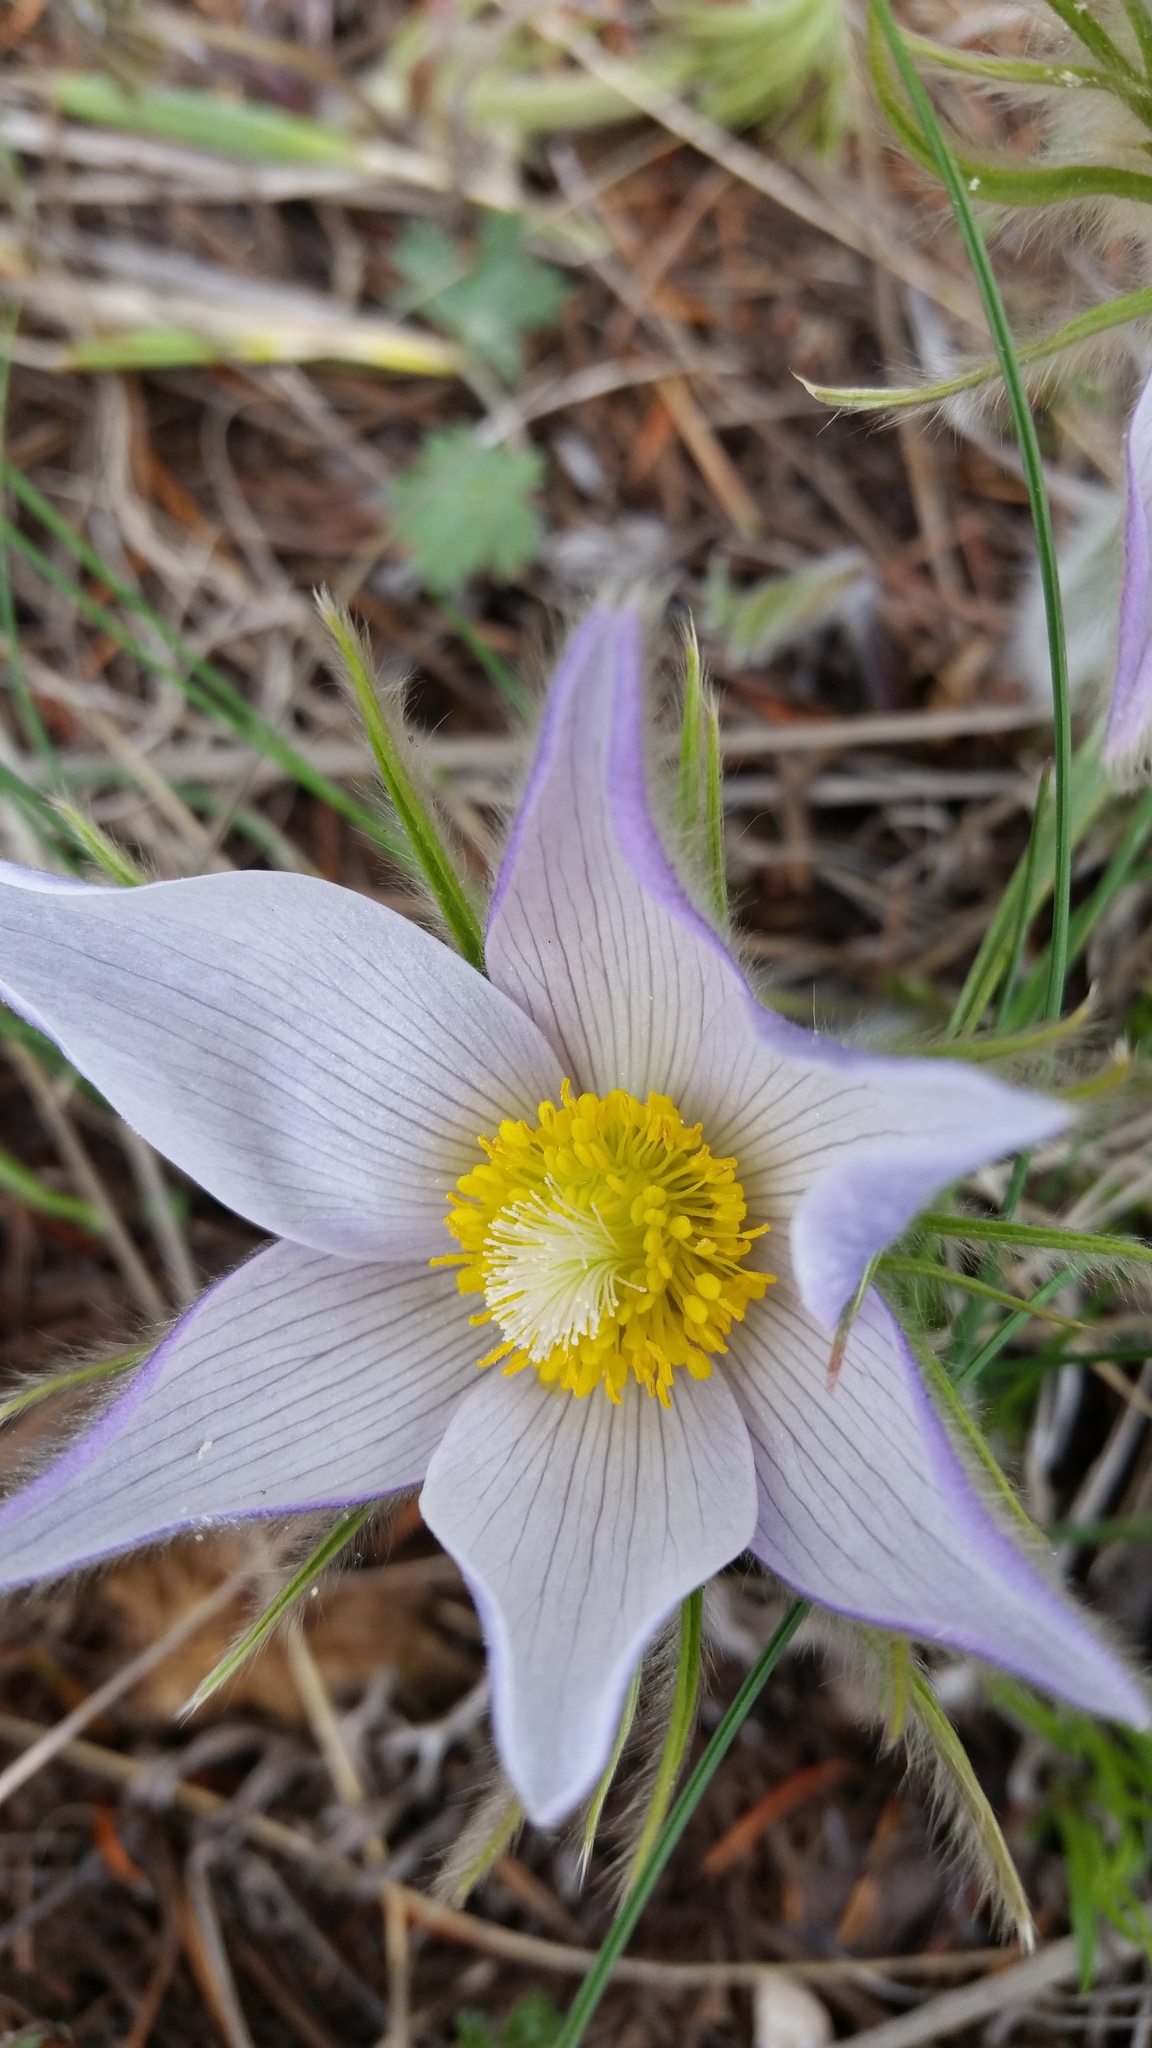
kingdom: Plantae
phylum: Tracheophyta
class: Magnoliopsida
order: Ranunculales
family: Ranunculaceae
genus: Pulsatilla
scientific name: Pulsatilla nuttalliana
